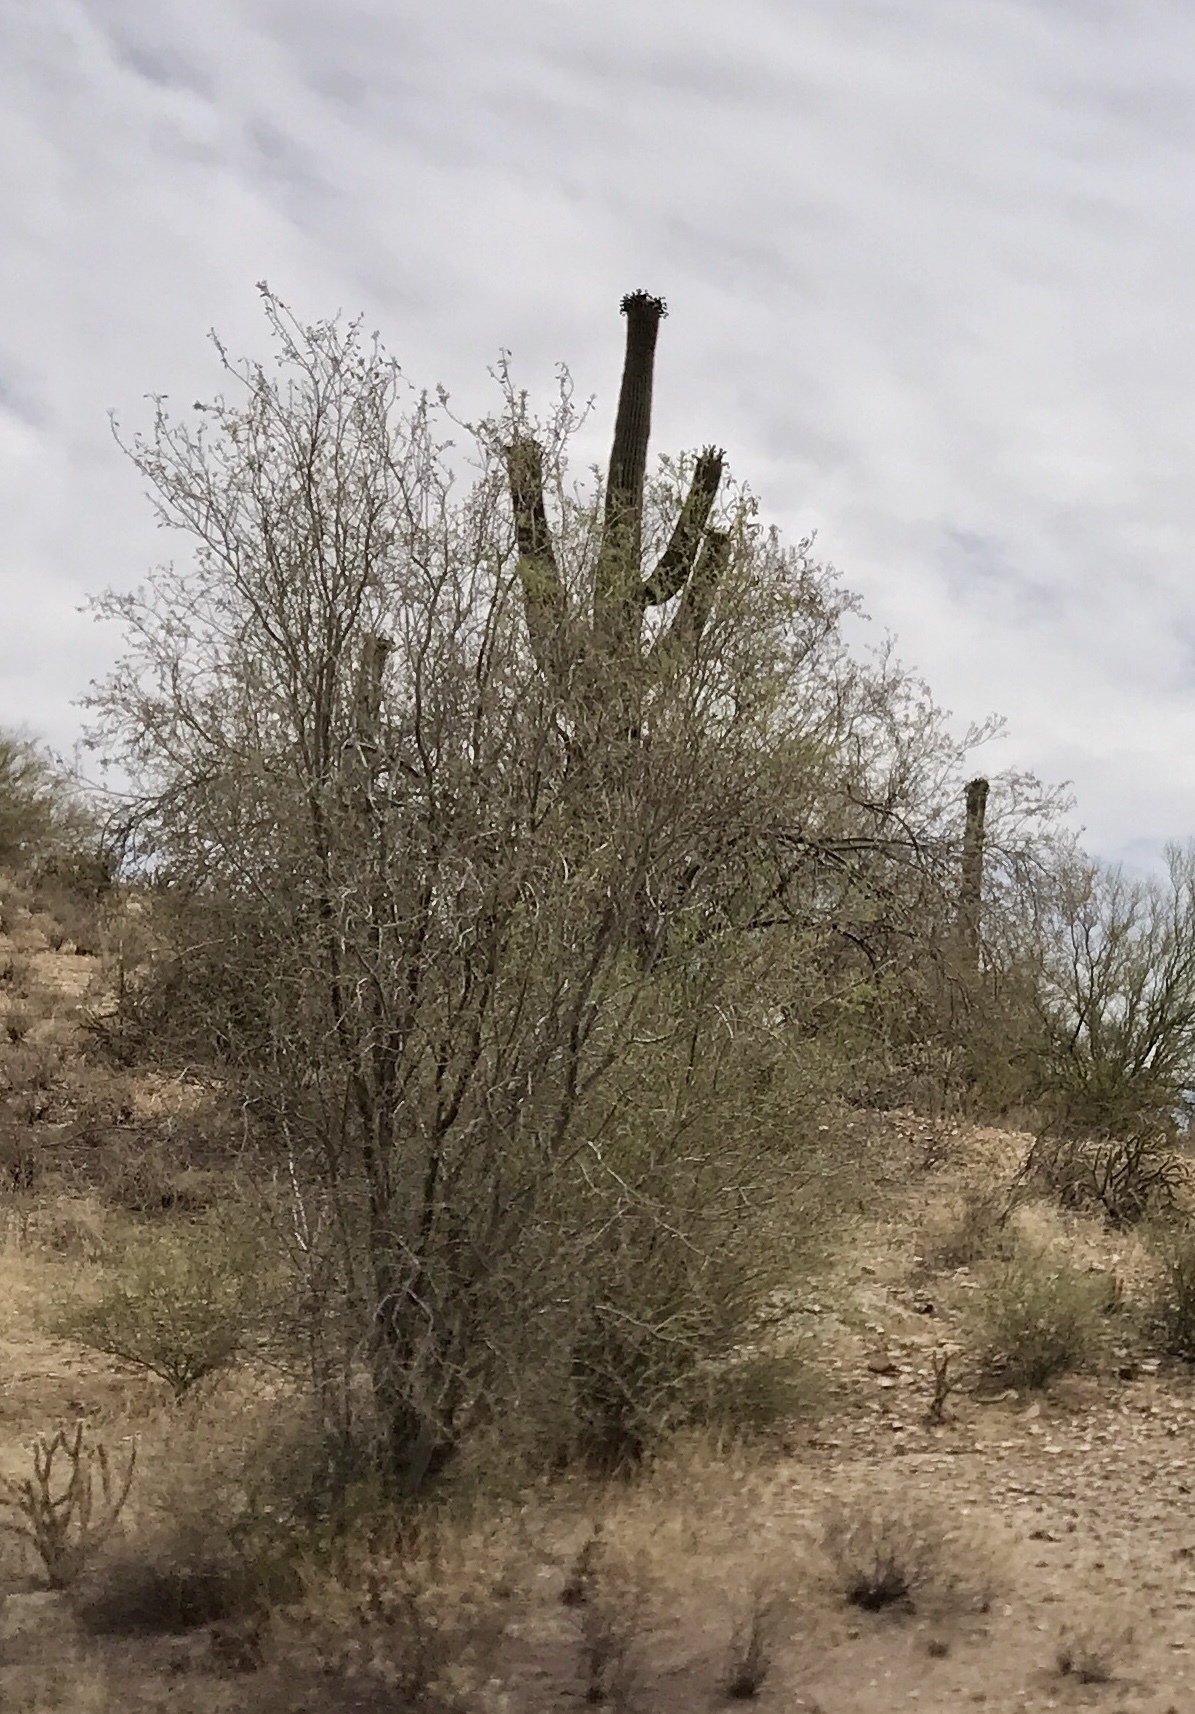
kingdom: Plantae
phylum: Tracheophyta
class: Magnoliopsida
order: Fabales
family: Fabaceae
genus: Olneya
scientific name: Olneya tesota
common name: Desert ironwood
